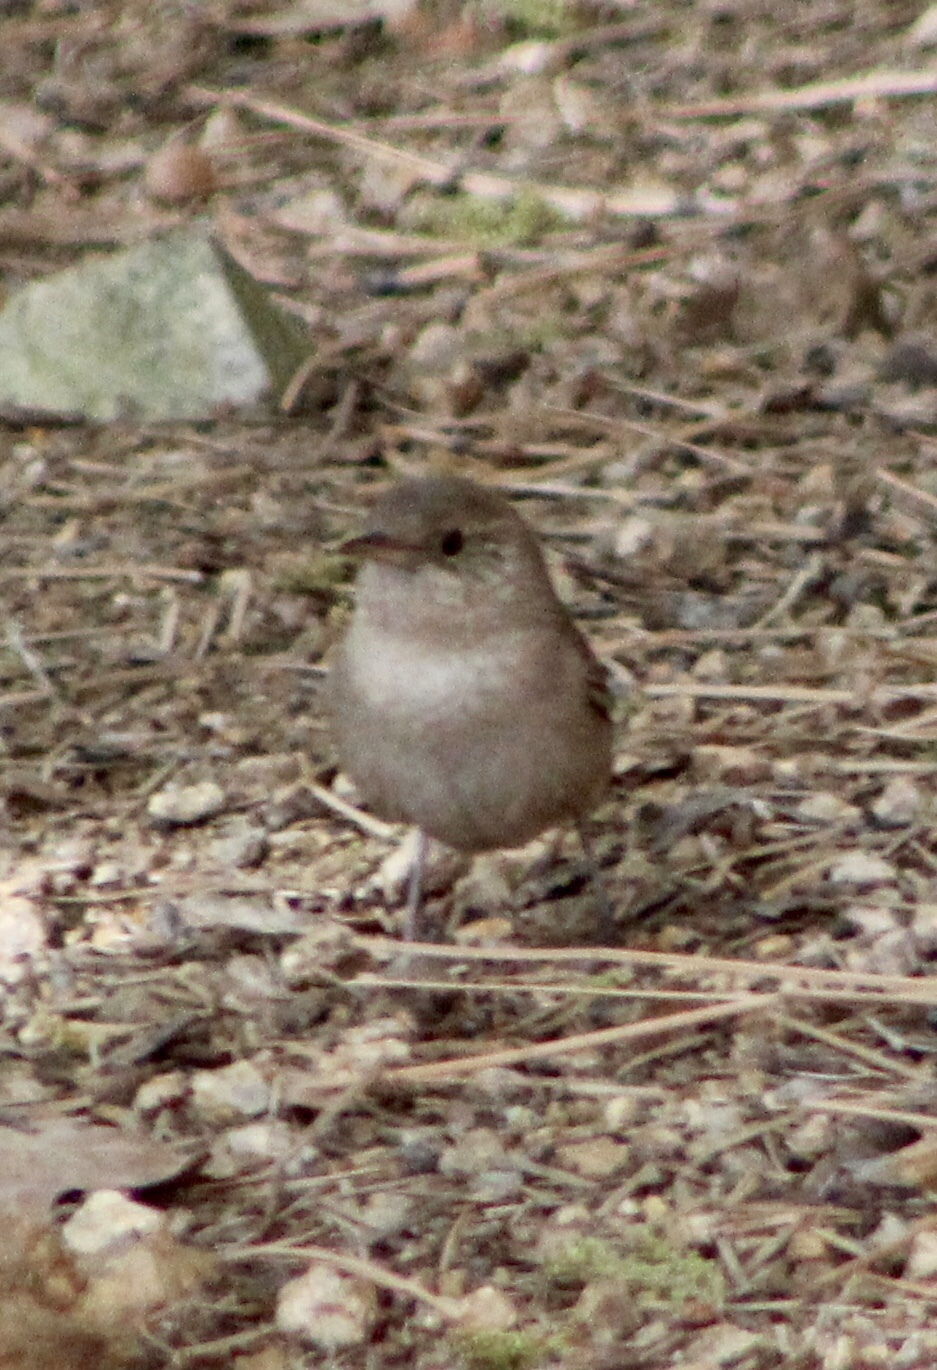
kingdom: Animalia
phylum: Chordata
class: Aves
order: Passeriformes
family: Troglodytidae
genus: Troglodytes
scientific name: Troglodytes aedon
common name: House wren
